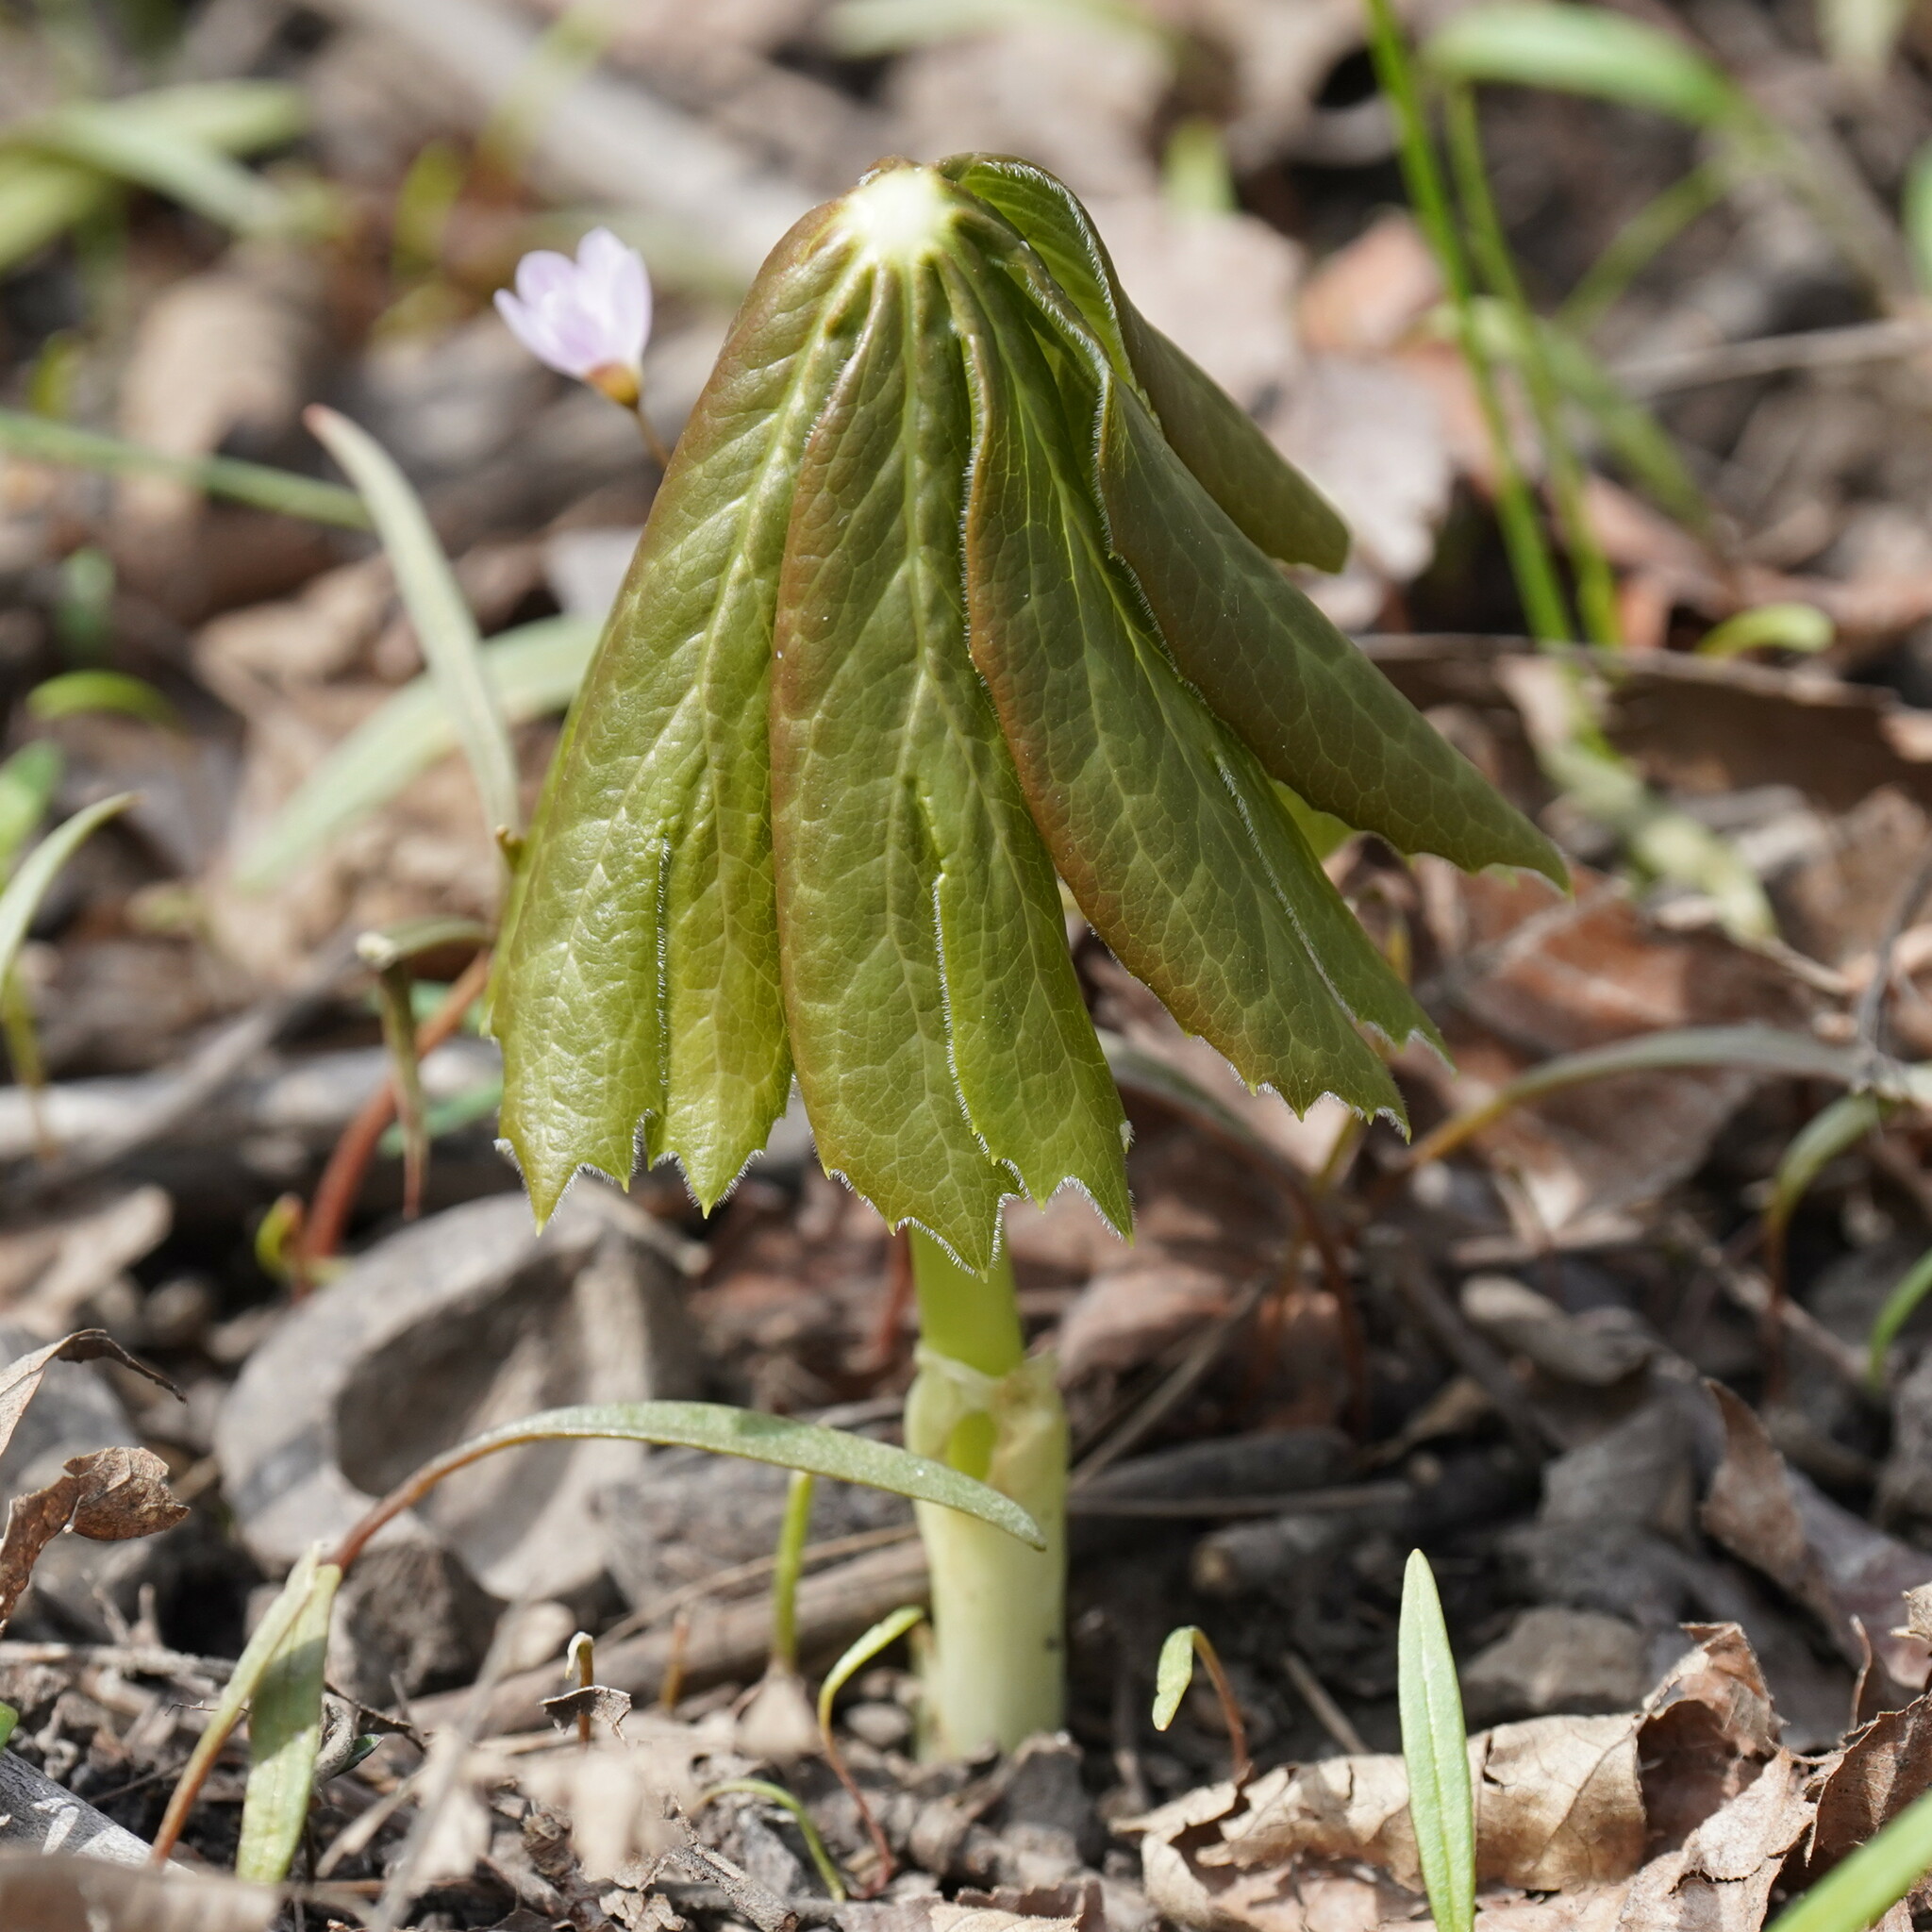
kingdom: Plantae
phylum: Tracheophyta
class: Magnoliopsida
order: Ranunculales
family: Berberidaceae
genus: Podophyllum
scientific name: Podophyllum peltatum
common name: Wild mandrake
